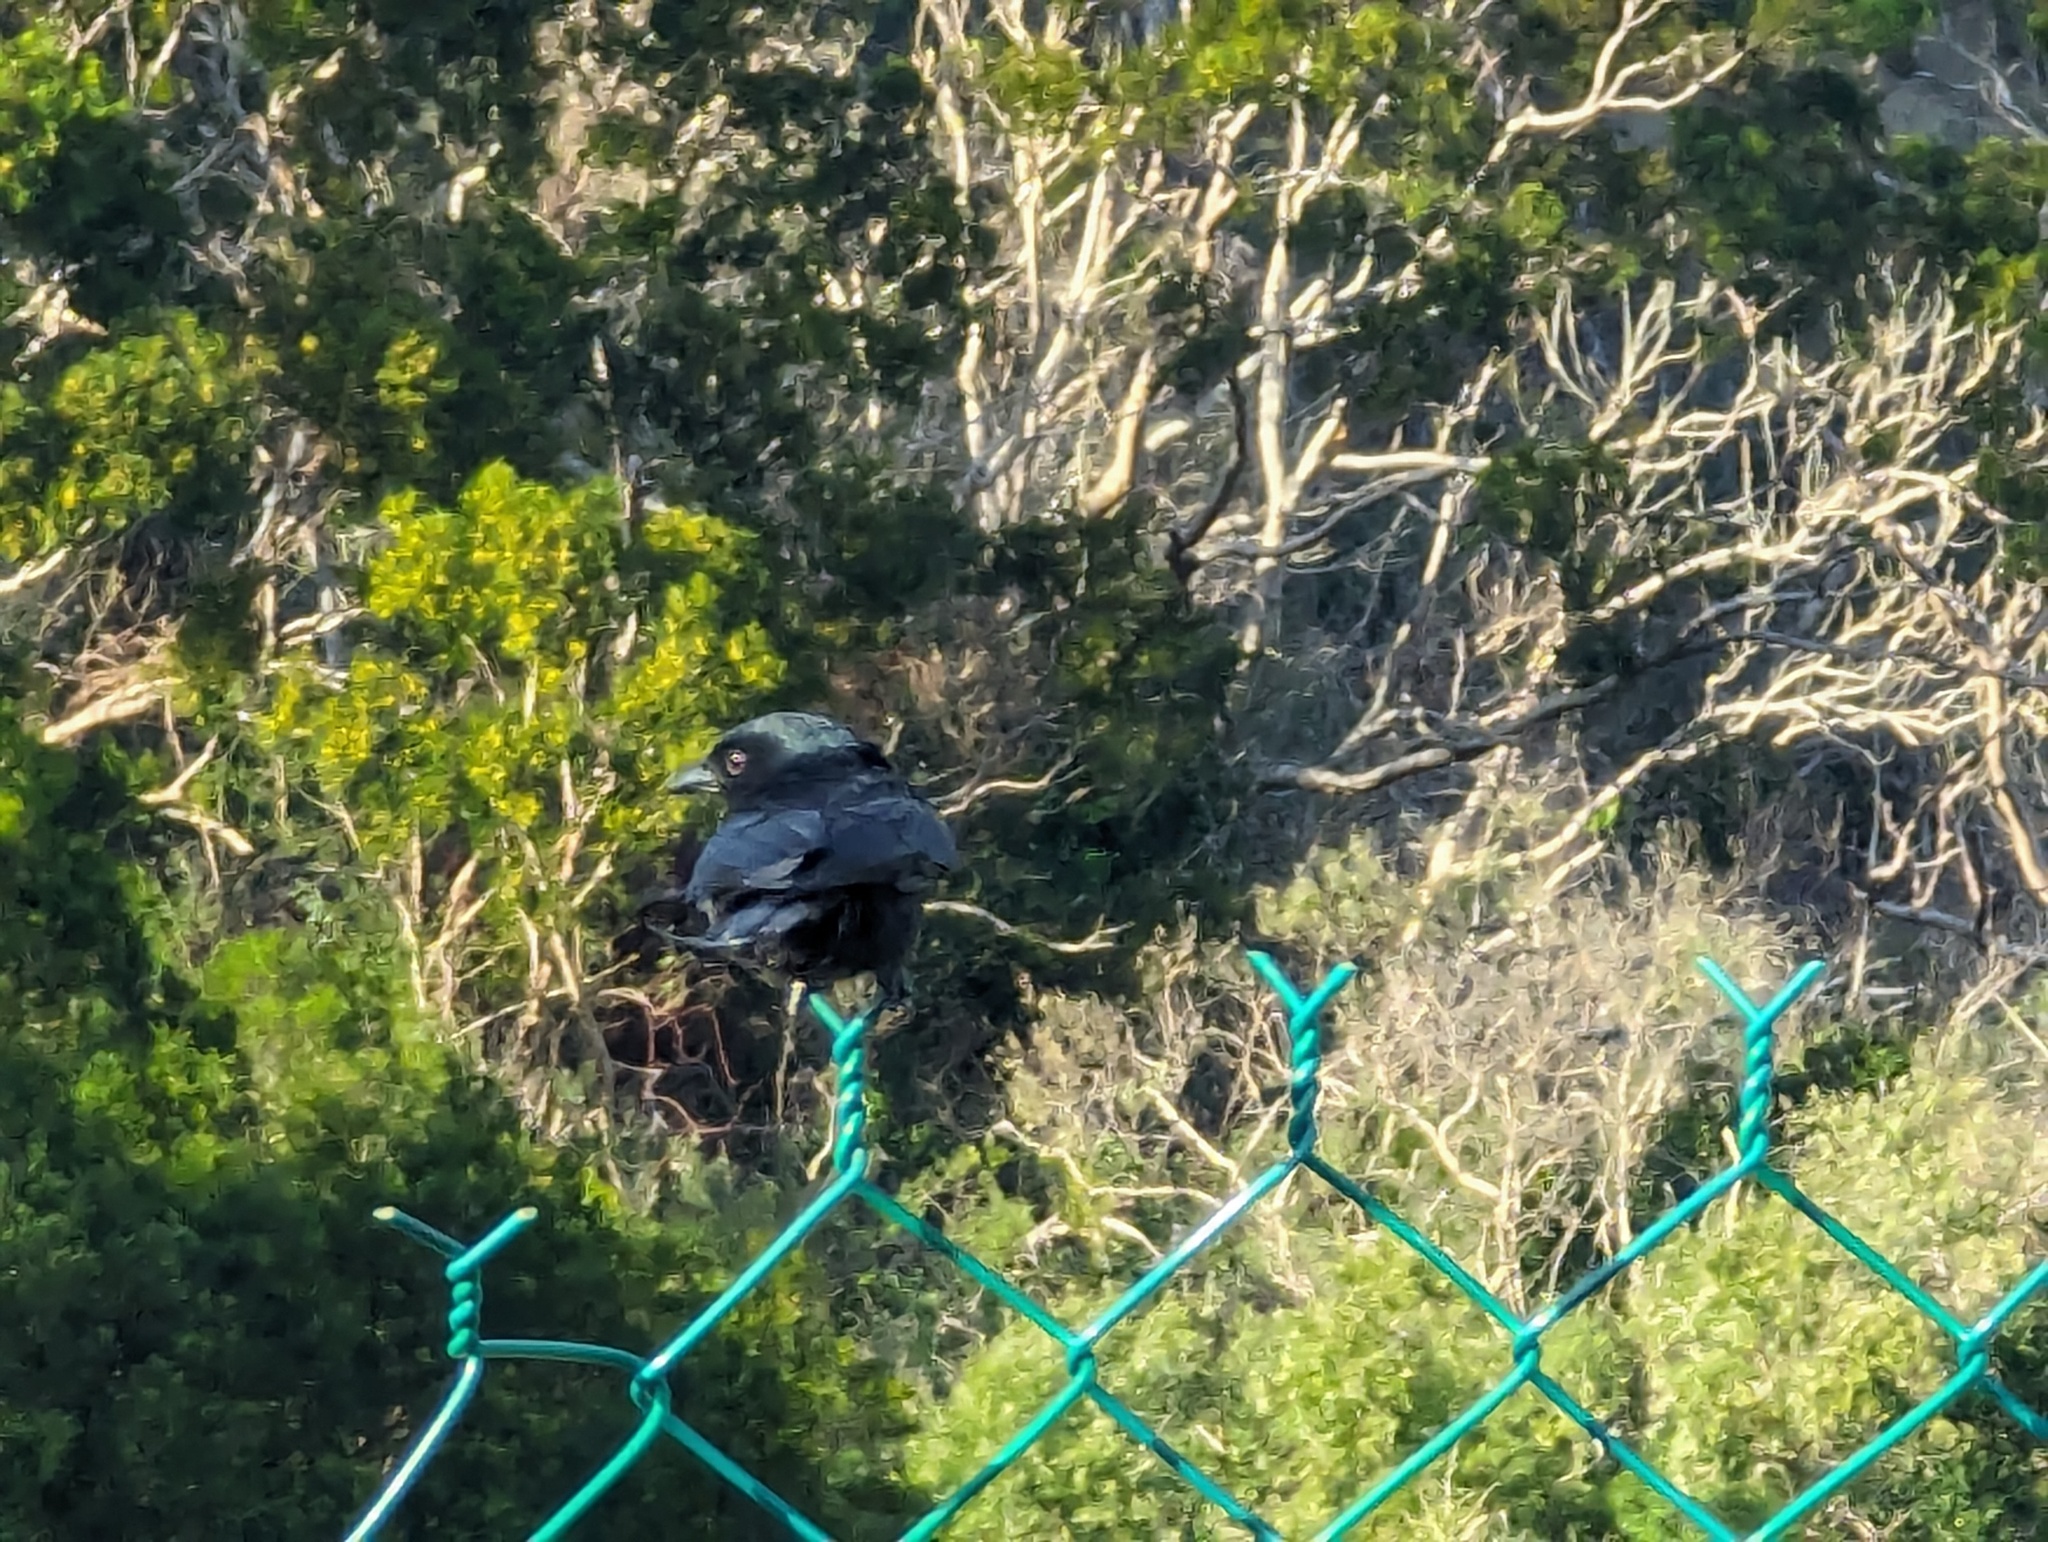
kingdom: Animalia
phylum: Chordata
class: Aves
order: Passeriformes
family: Dicruridae
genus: Dicrurus
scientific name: Dicrurus macrocercus
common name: Black drongo
